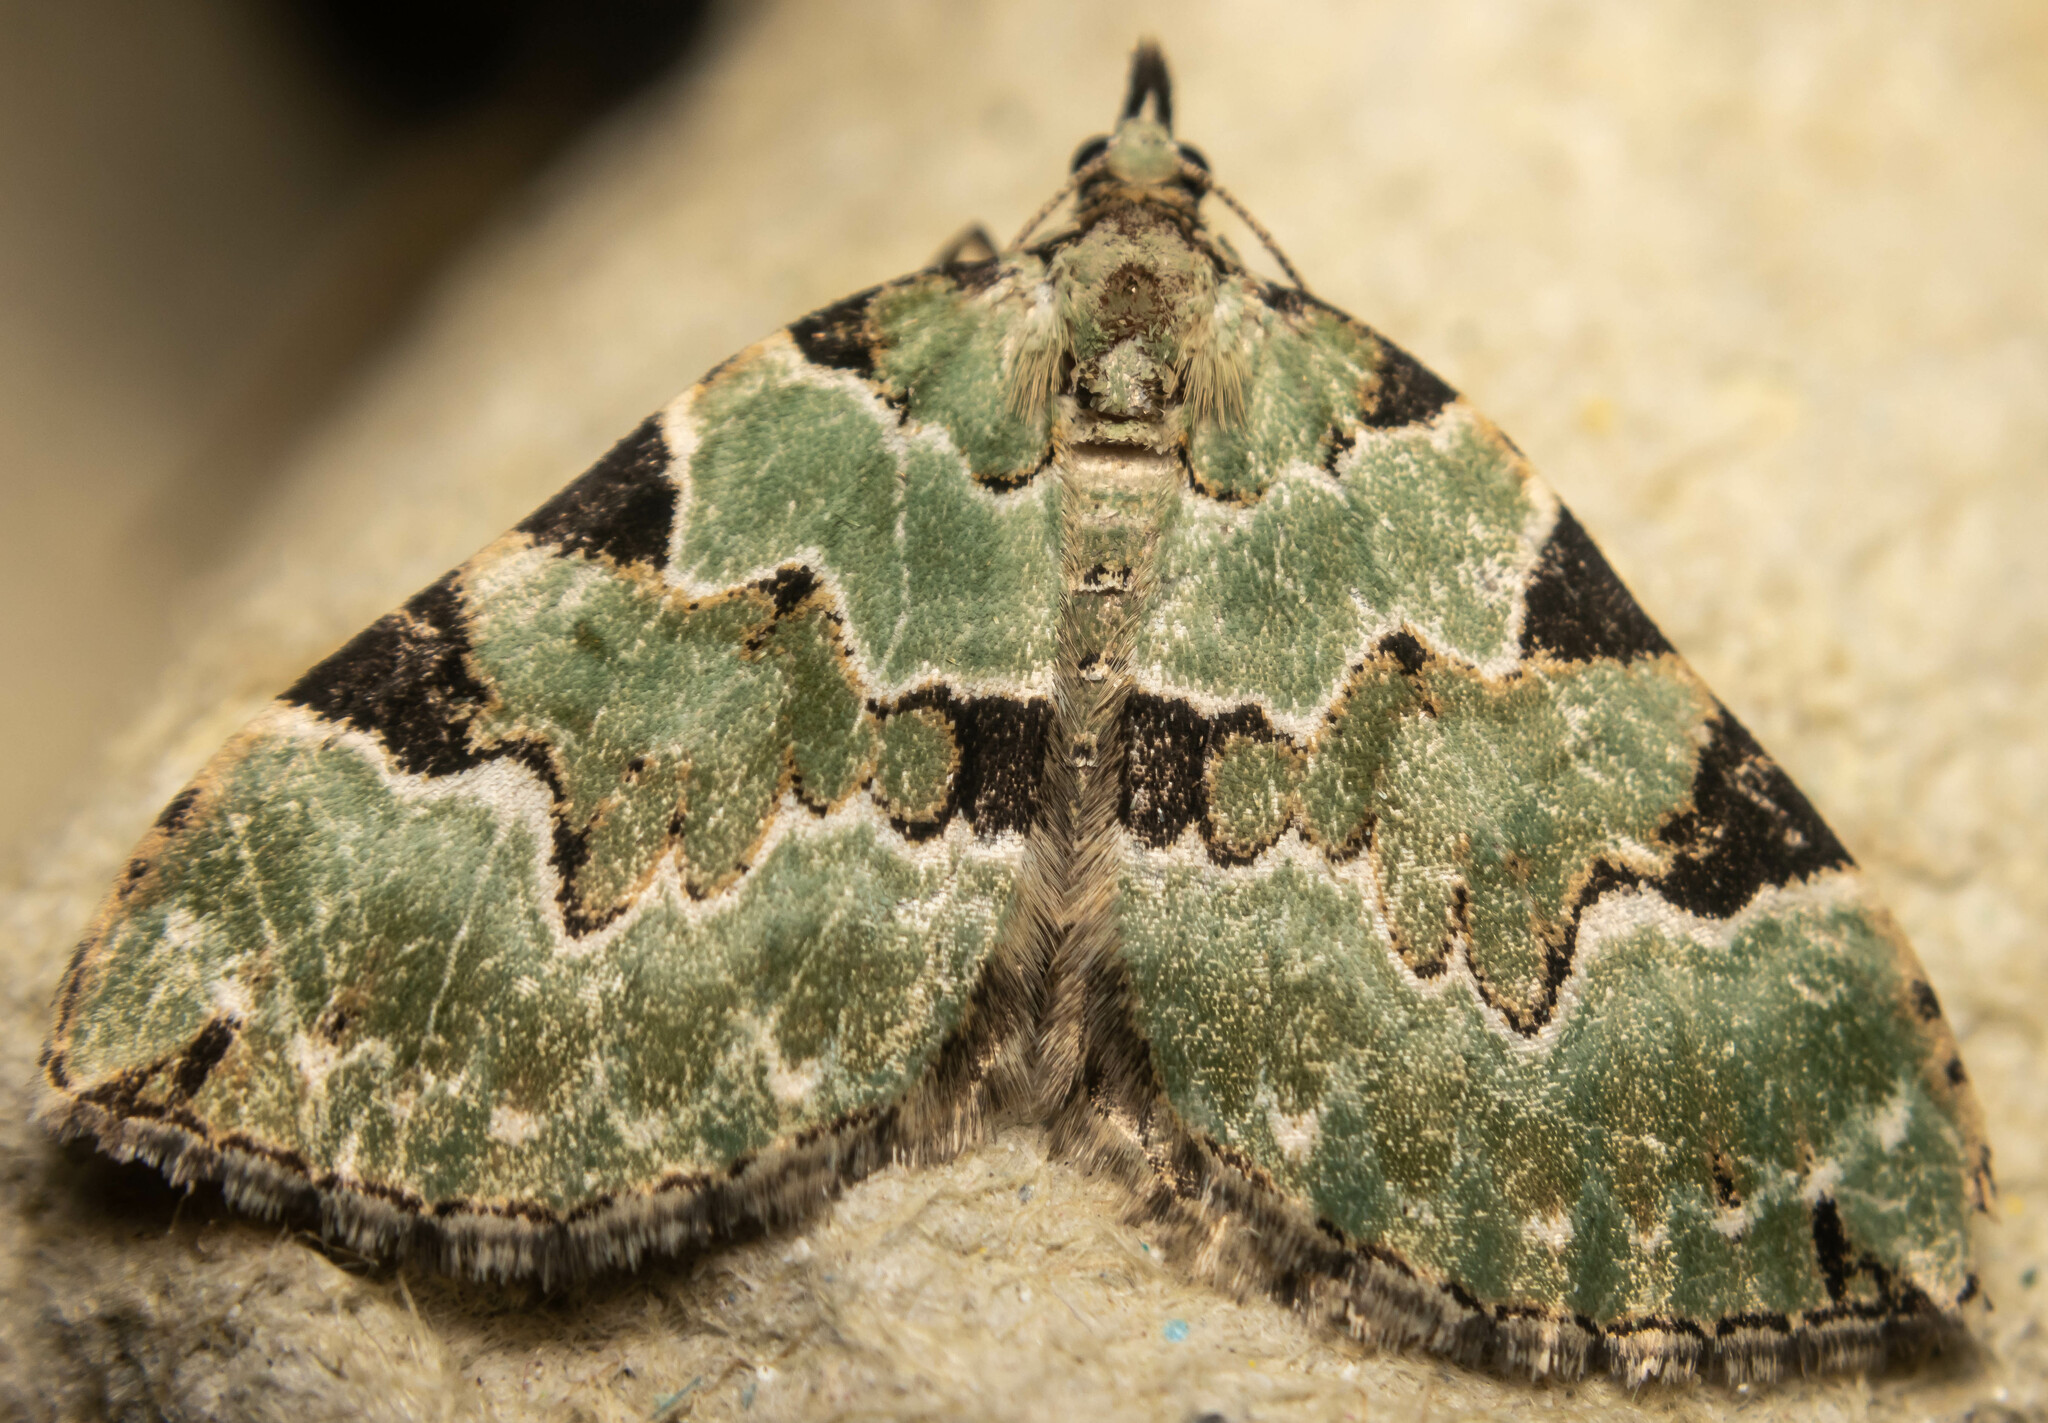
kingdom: Animalia
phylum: Arthropoda
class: Insecta
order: Lepidoptera
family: Geometridae
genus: Colostygia
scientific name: Colostygia pectinataria
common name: Green carpet
